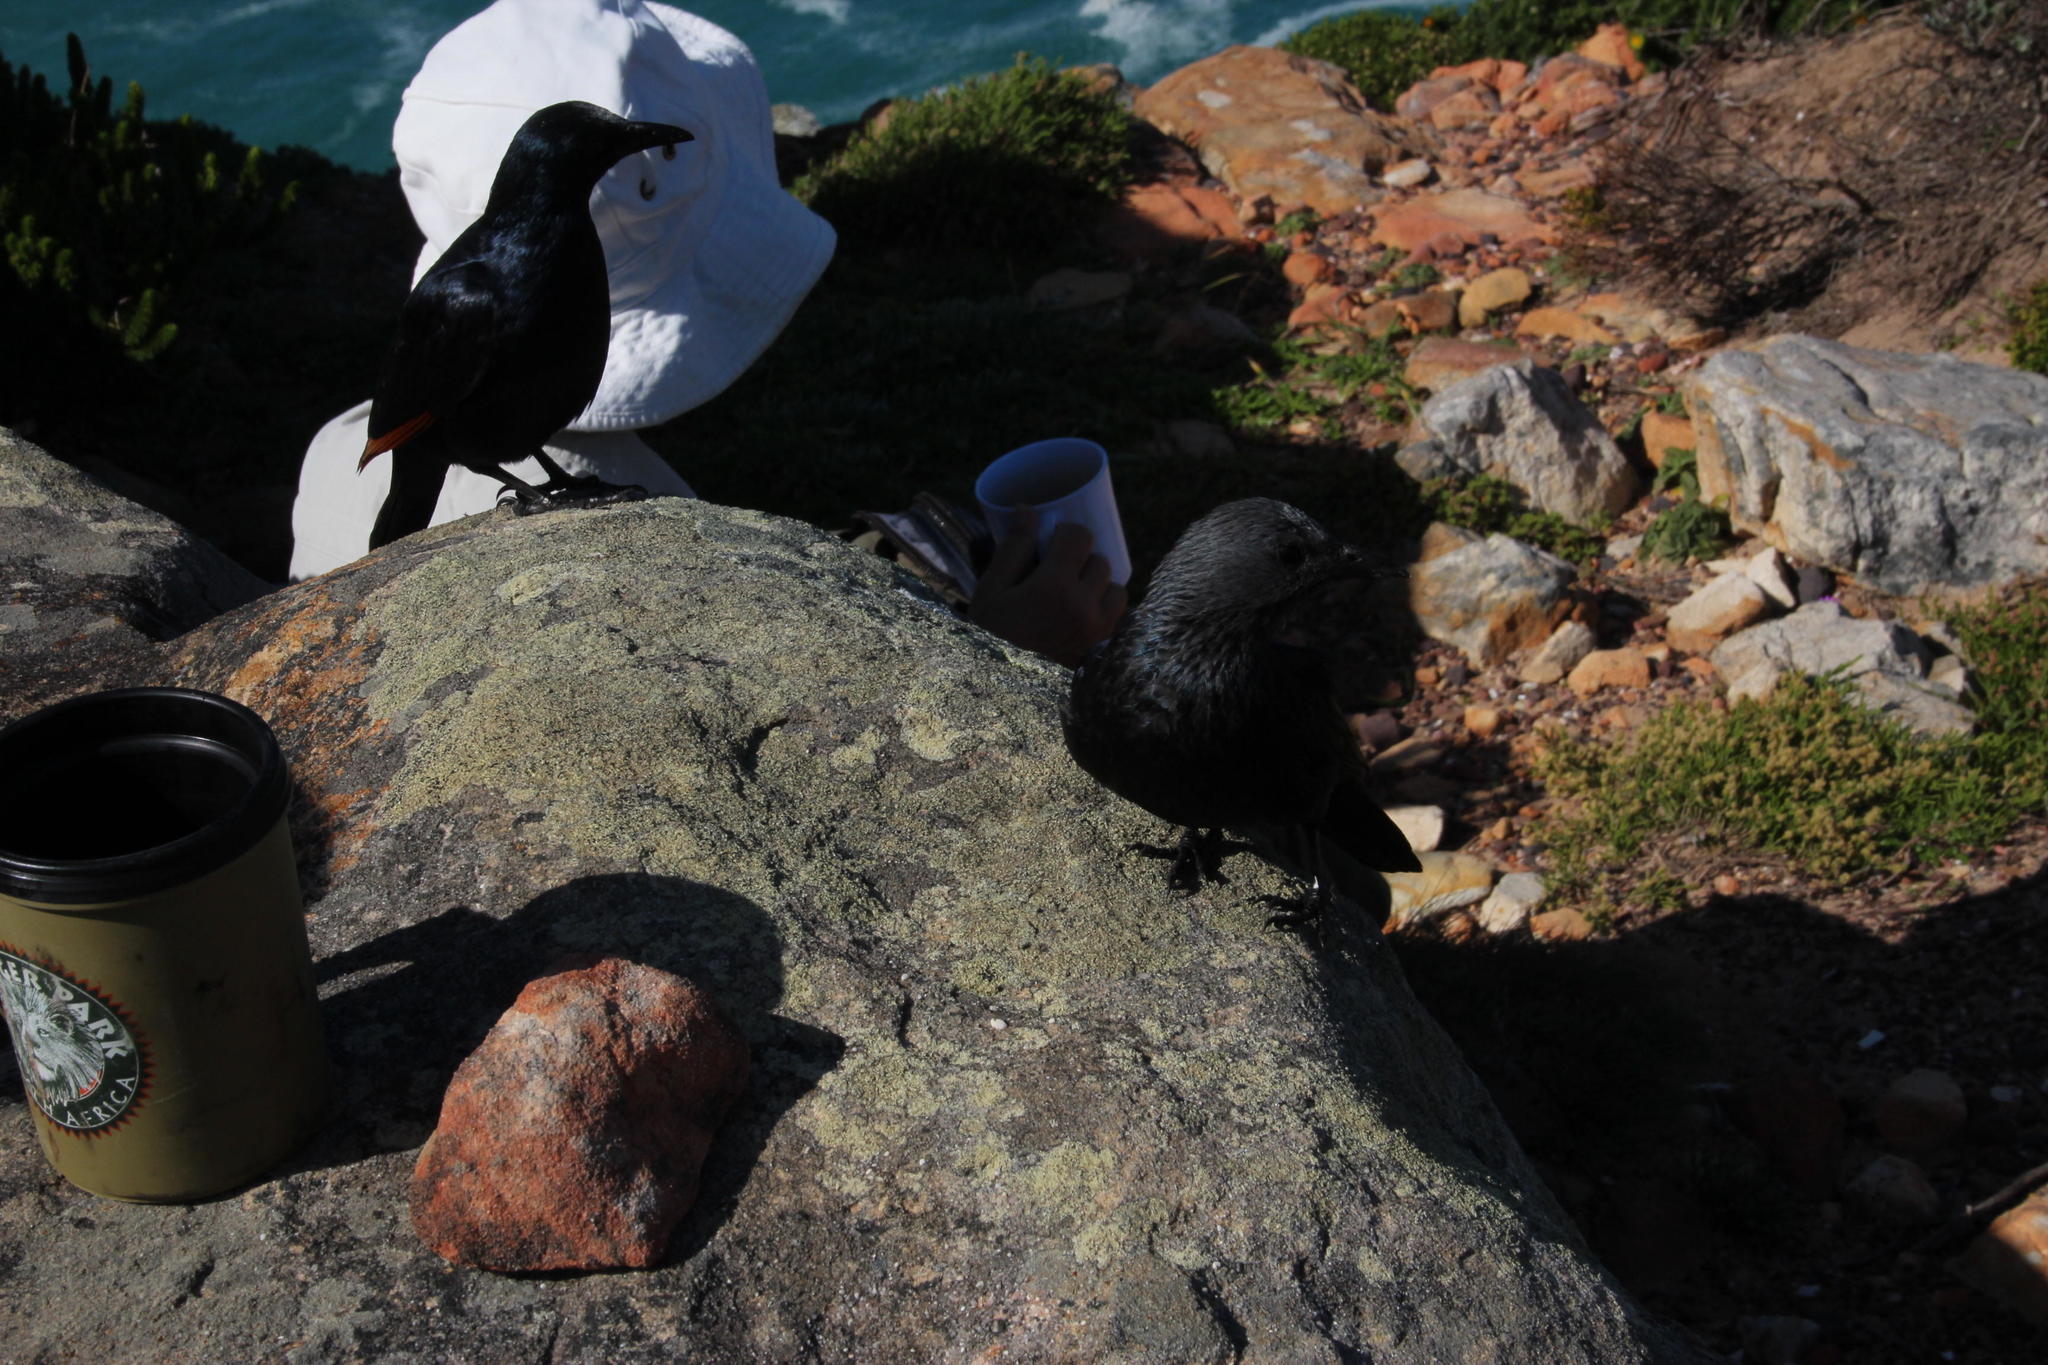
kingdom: Animalia
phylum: Chordata
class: Aves
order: Passeriformes
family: Sturnidae
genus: Onychognathus
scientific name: Onychognathus morio
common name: Red-winged starling
